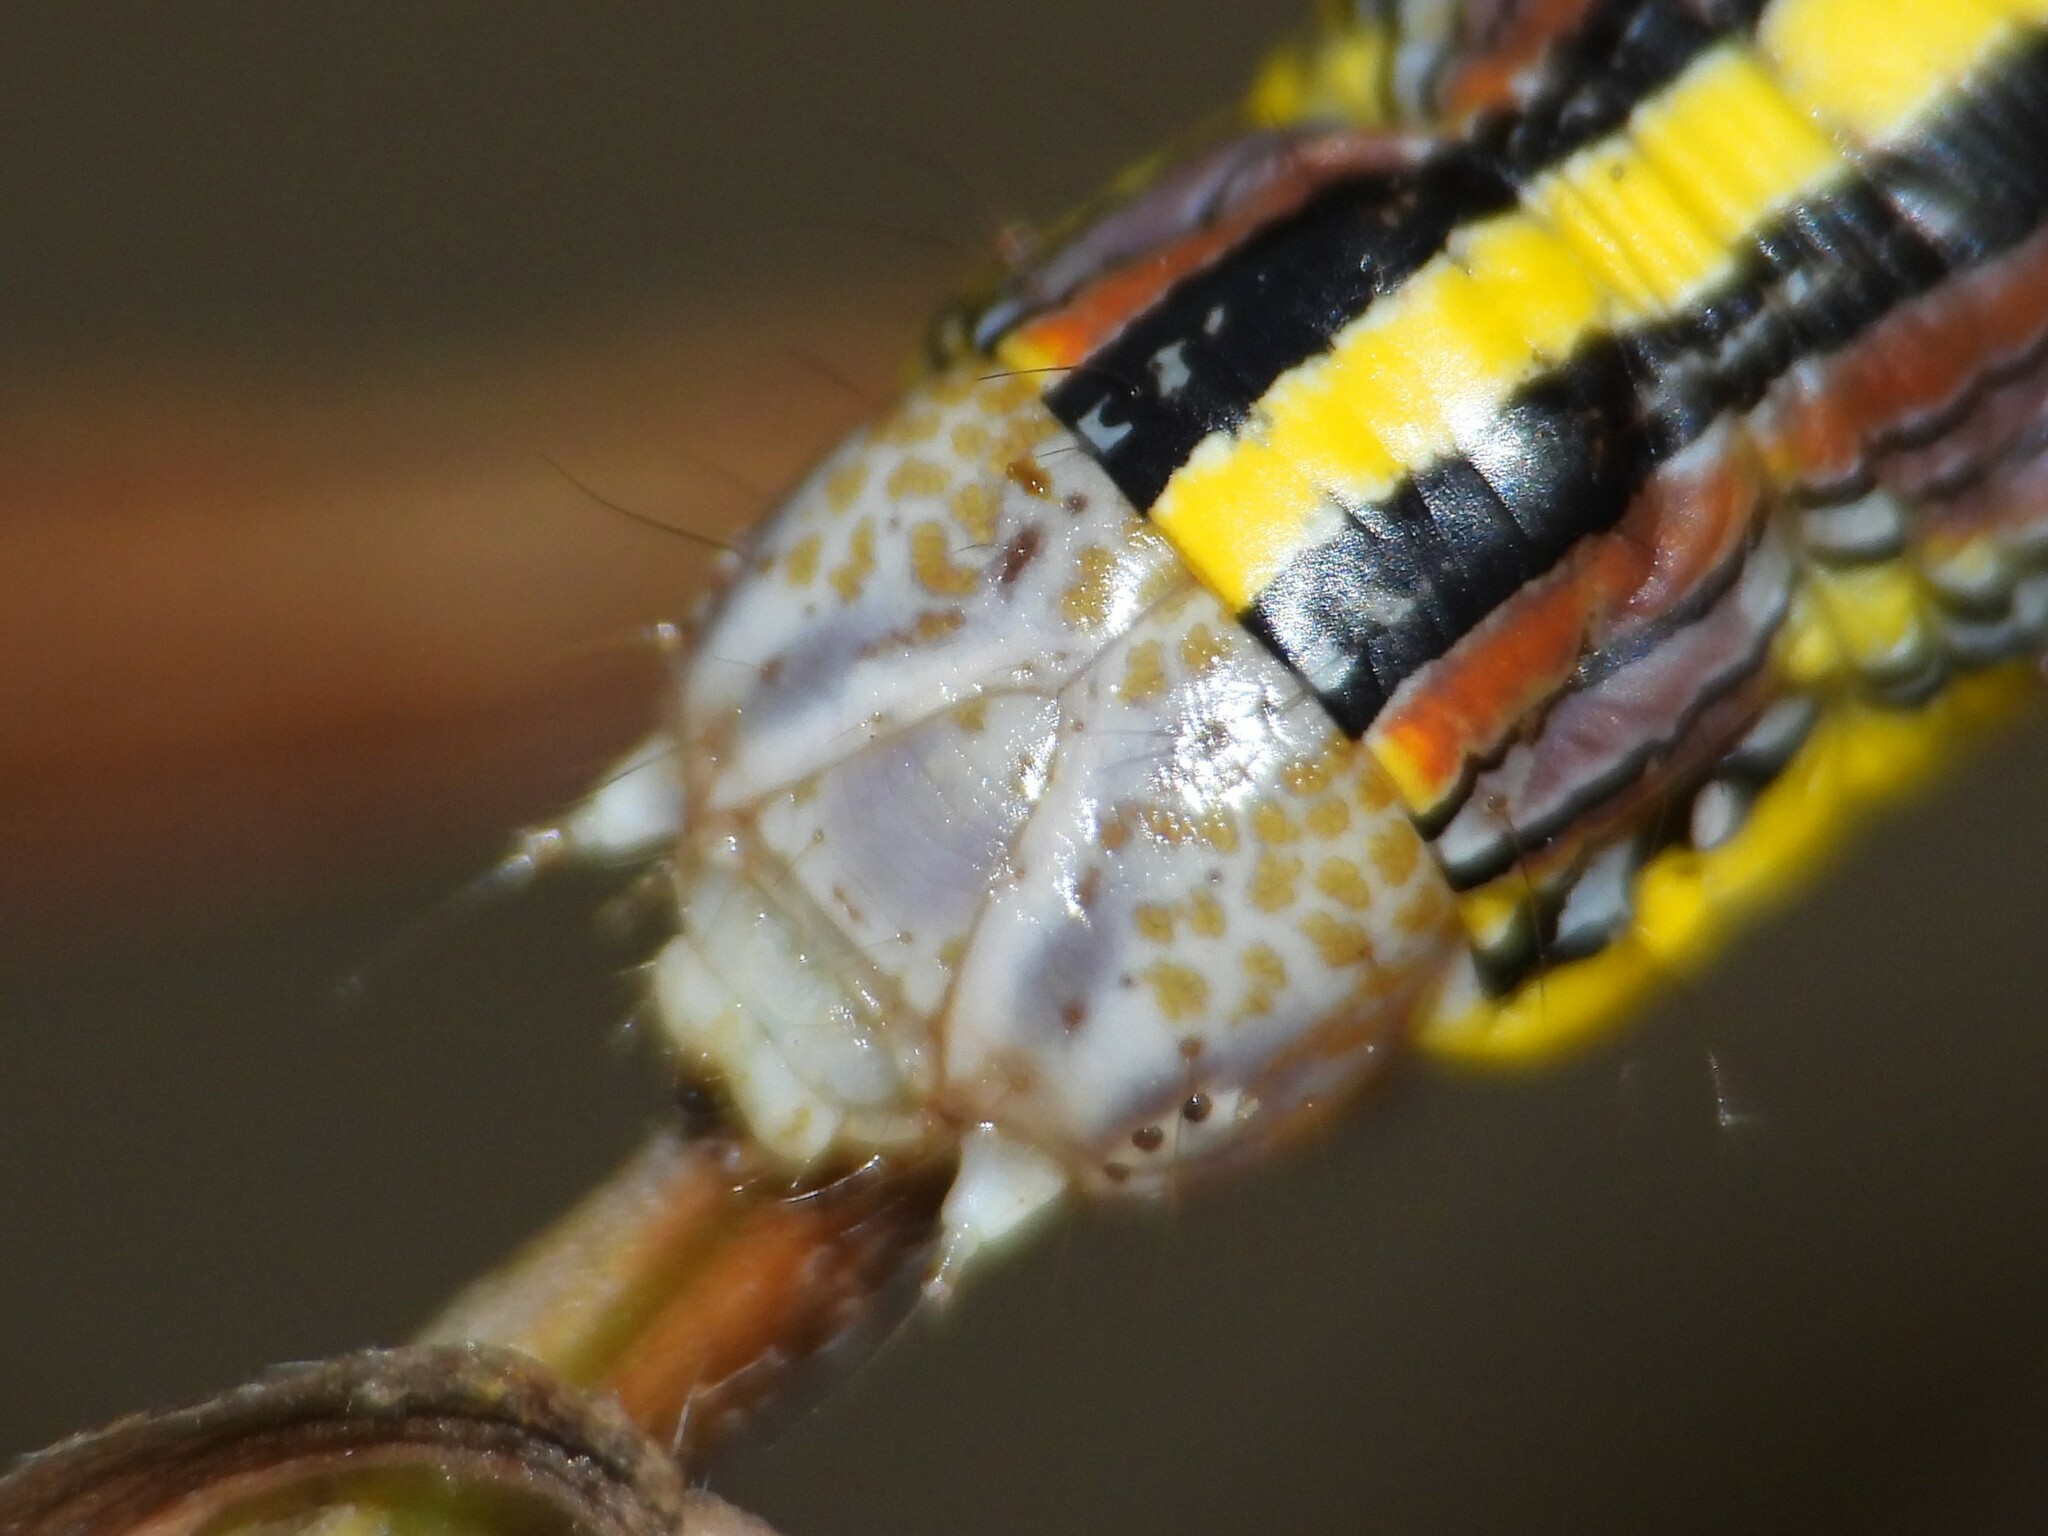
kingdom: Animalia
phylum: Arthropoda
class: Insecta
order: Lepidoptera
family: Noctuidae
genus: Cucullia
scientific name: Cucullia asteroides
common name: Asteroid moth
